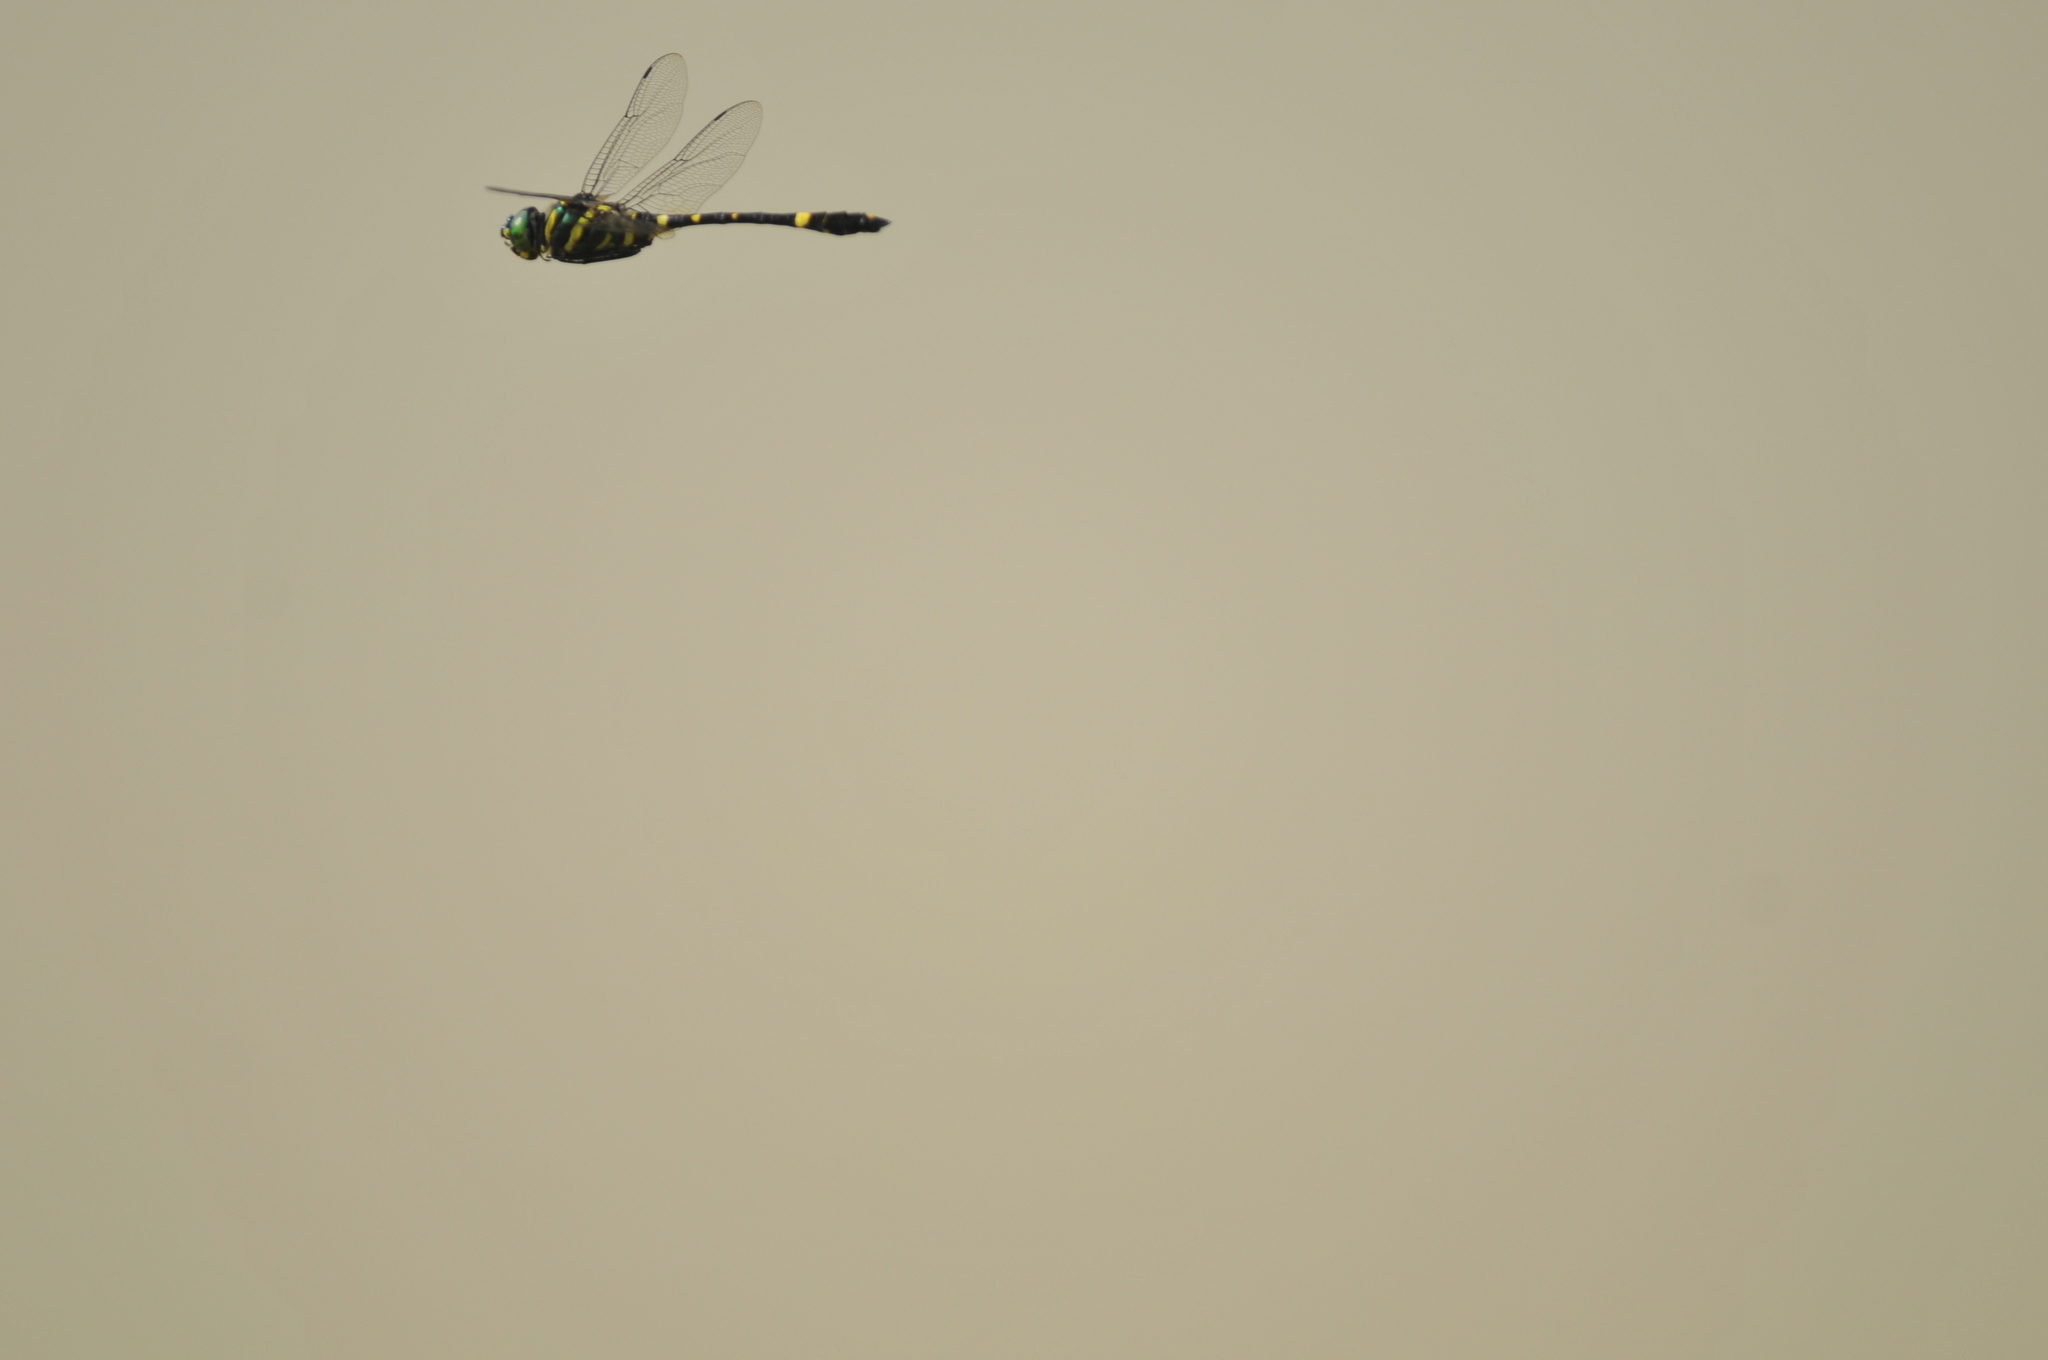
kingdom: Animalia
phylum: Arthropoda
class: Insecta
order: Odonata
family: Macromiidae
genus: Epophthalmia
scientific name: Epophthalmia elegans
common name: Regal pond cruiser
